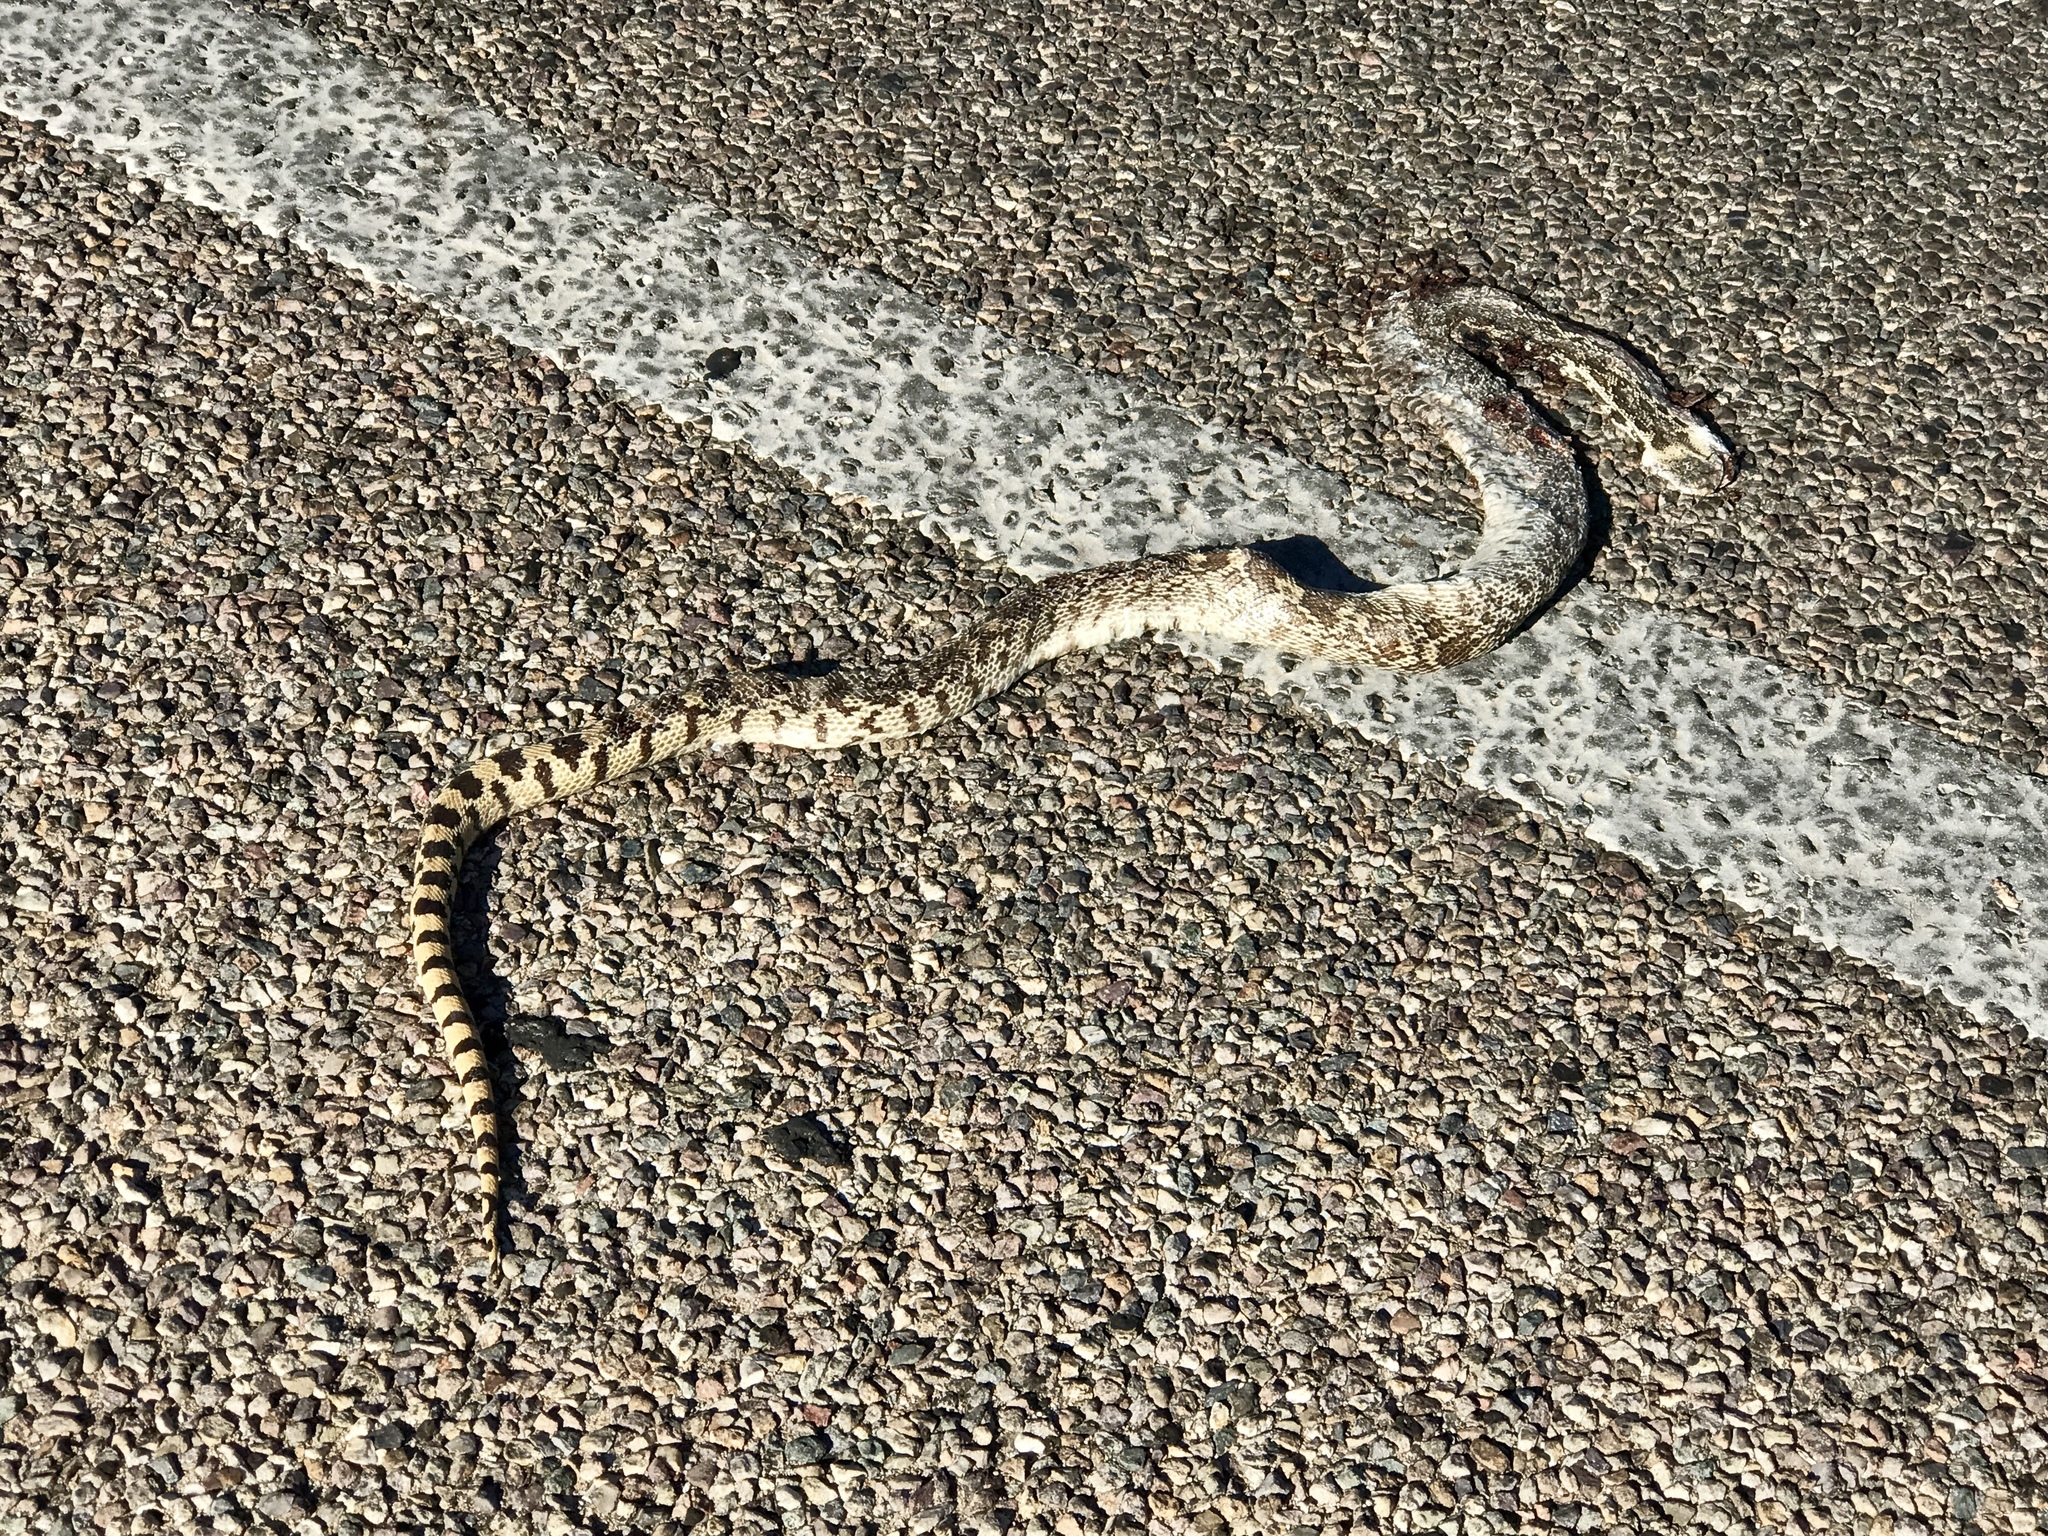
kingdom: Animalia
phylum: Chordata
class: Squamata
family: Colubridae
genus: Pituophis
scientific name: Pituophis catenifer
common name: Gopher snake
